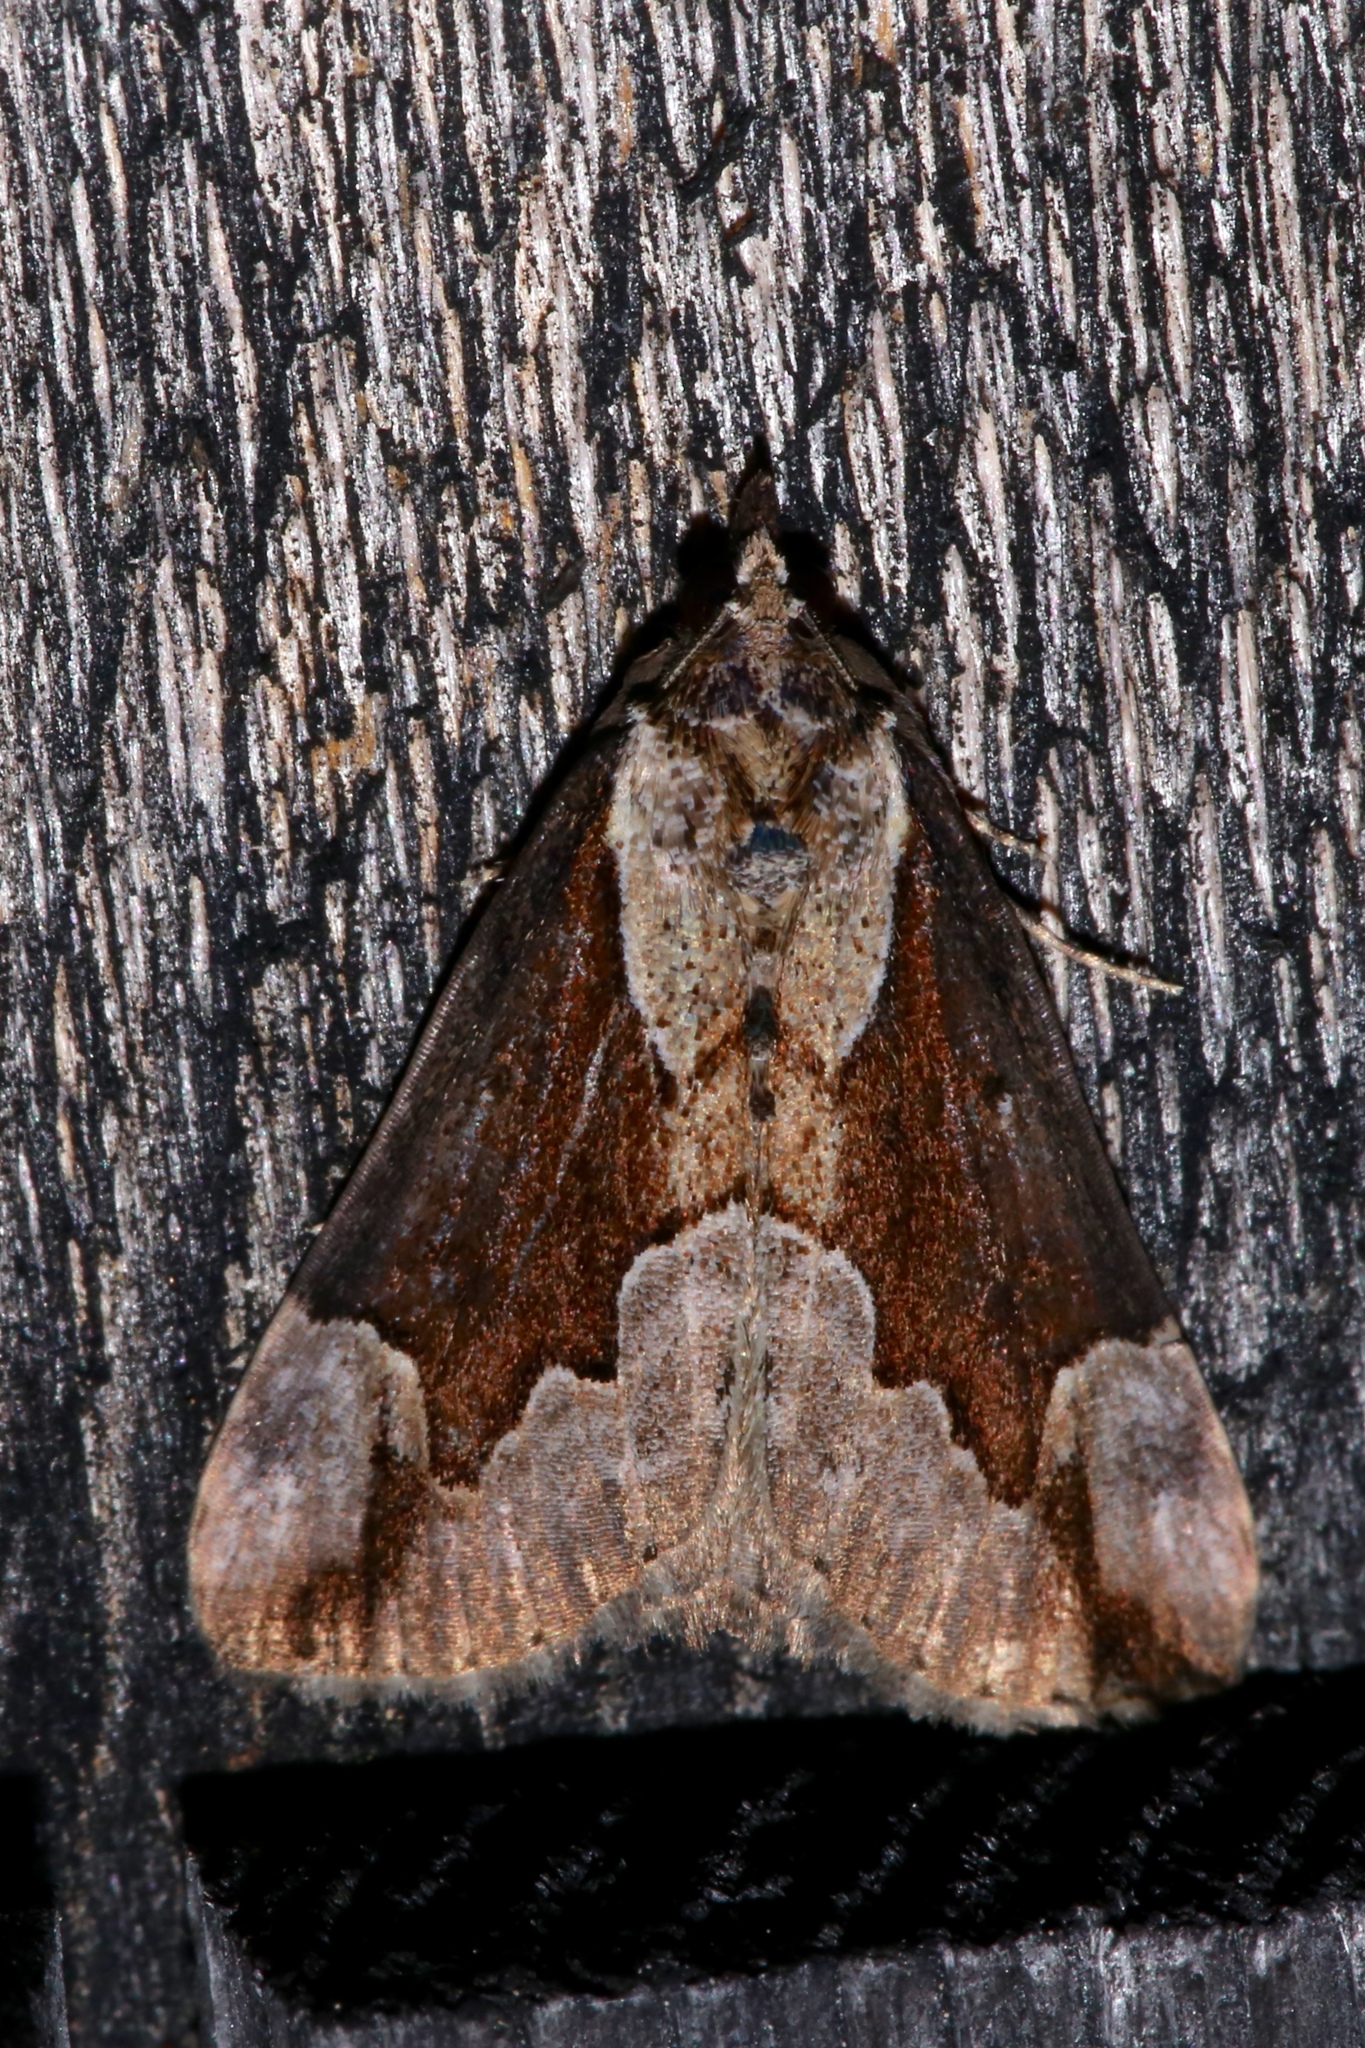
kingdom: Animalia
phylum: Arthropoda
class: Insecta
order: Lepidoptera
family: Erebidae
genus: Hypena
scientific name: Hypena baltimoralis
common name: Baltimore snout
